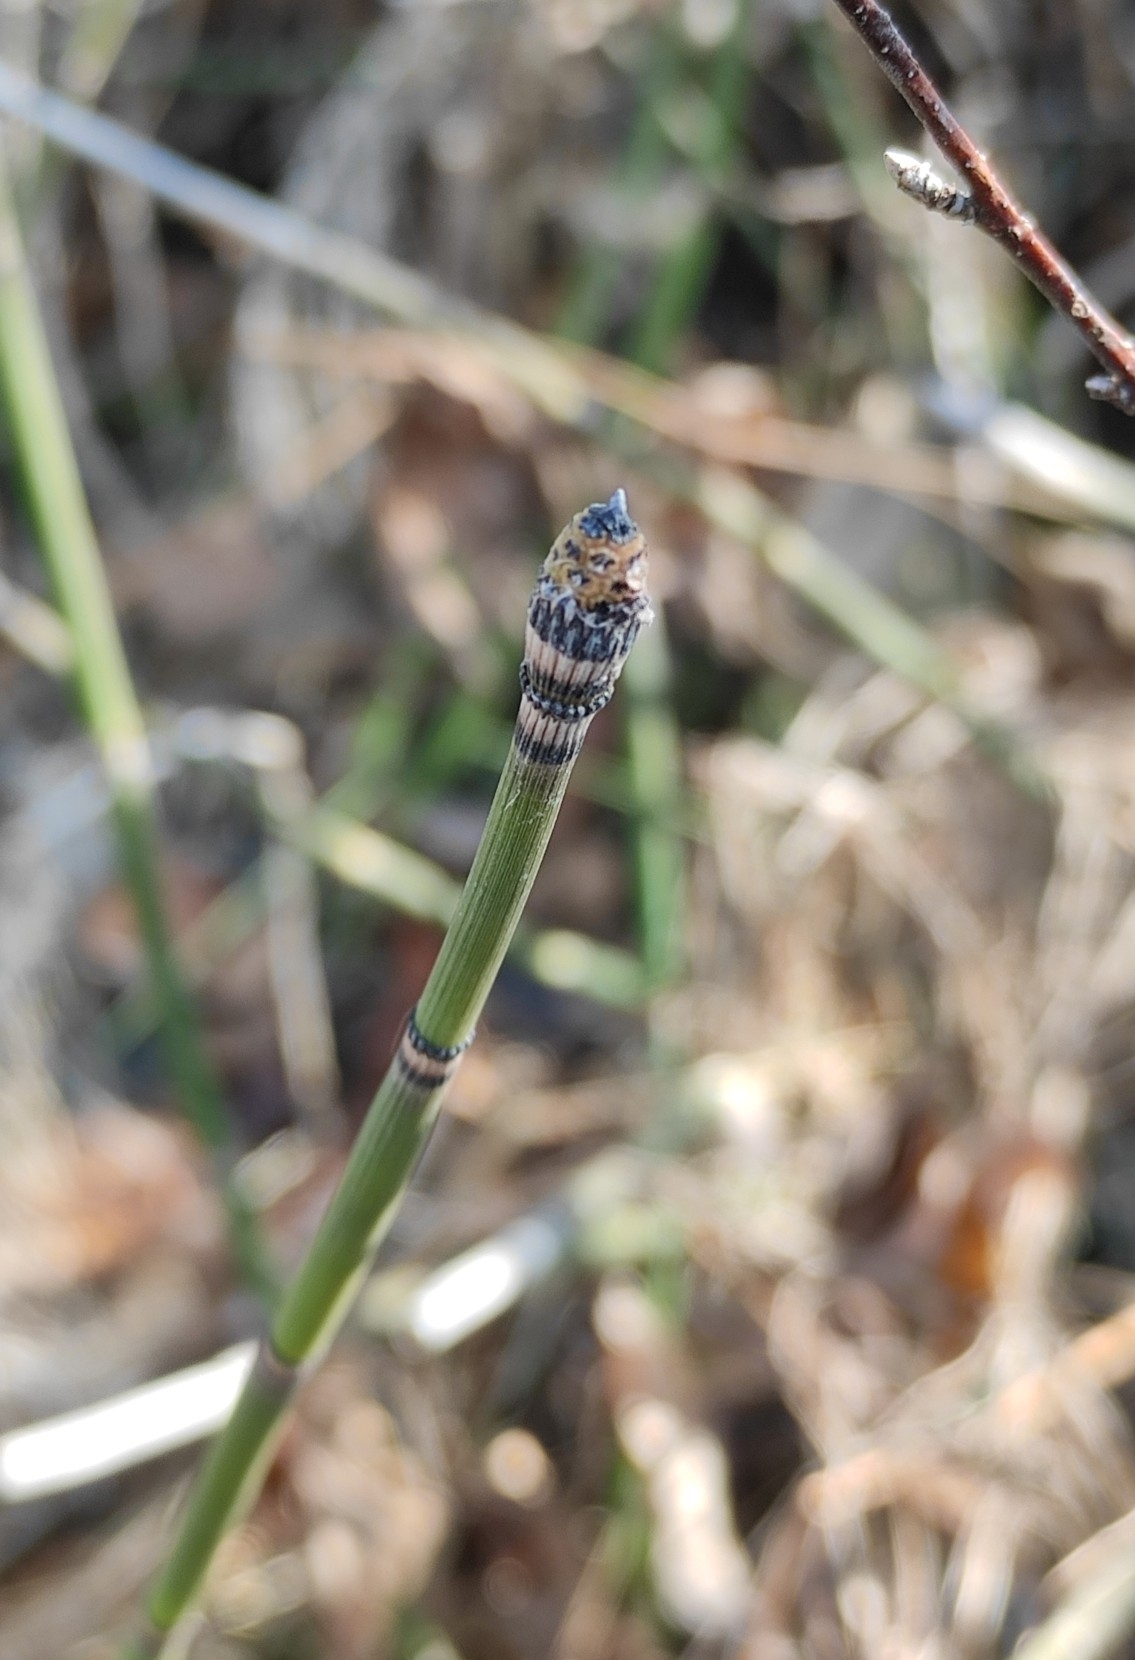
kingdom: Plantae
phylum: Tracheophyta
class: Polypodiopsida
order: Equisetales
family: Equisetaceae
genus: Equisetum
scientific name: Equisetum hyemale
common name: Rough horsetail
